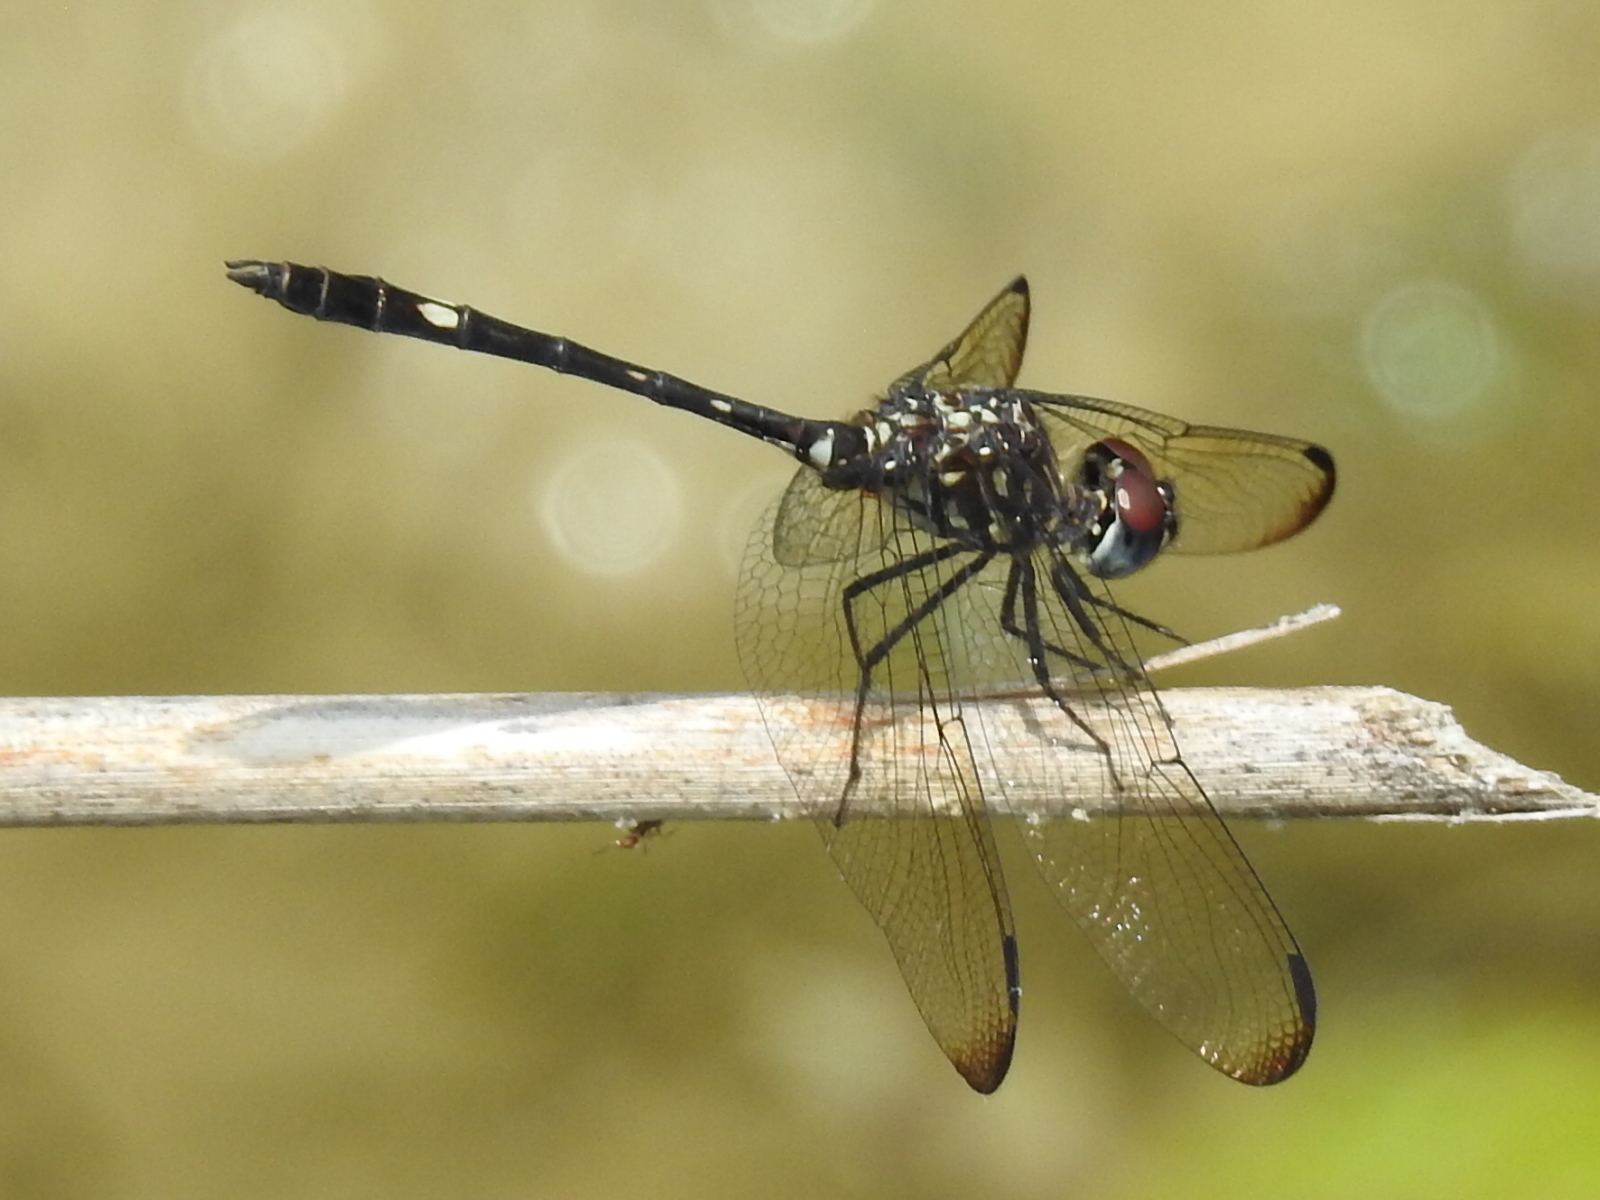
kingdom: Animalia
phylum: Arthropoda
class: Insecta
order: Odonata
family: Libellulidae
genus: Dythemis
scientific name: Dythemis velox
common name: Swift setwing
